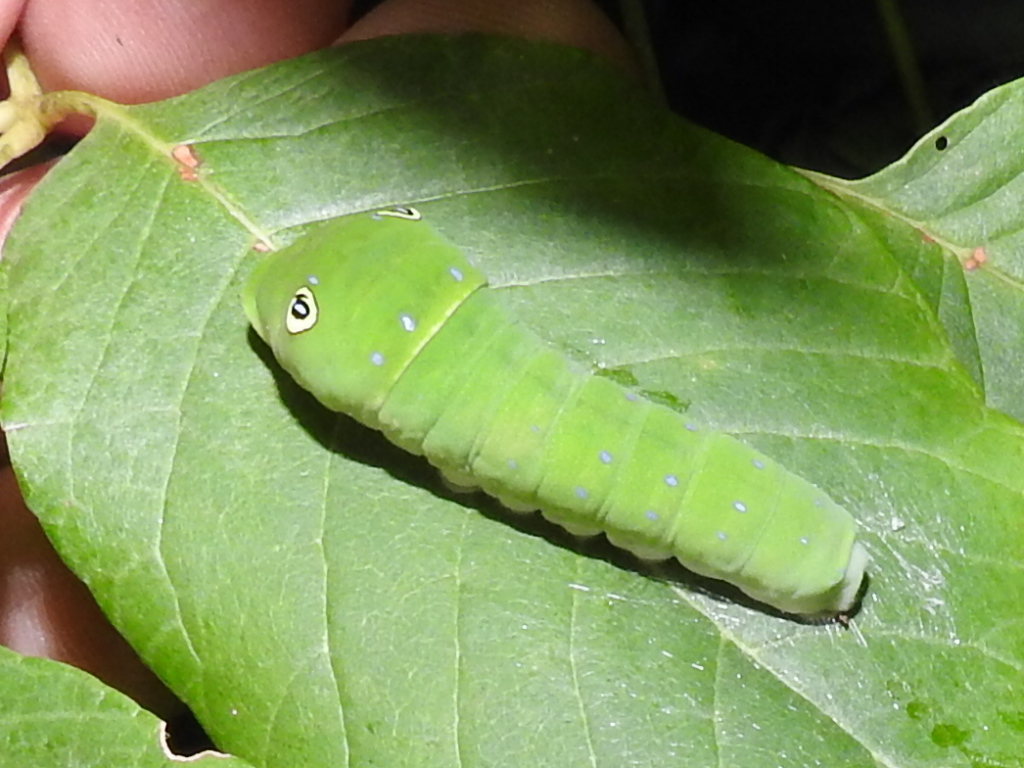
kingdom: Animalia
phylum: Arthropoda
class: Insecta
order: Lepidoptera
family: Papilionidae
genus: Papilio
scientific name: Papilio glaucus
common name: Tiger swallowtail
